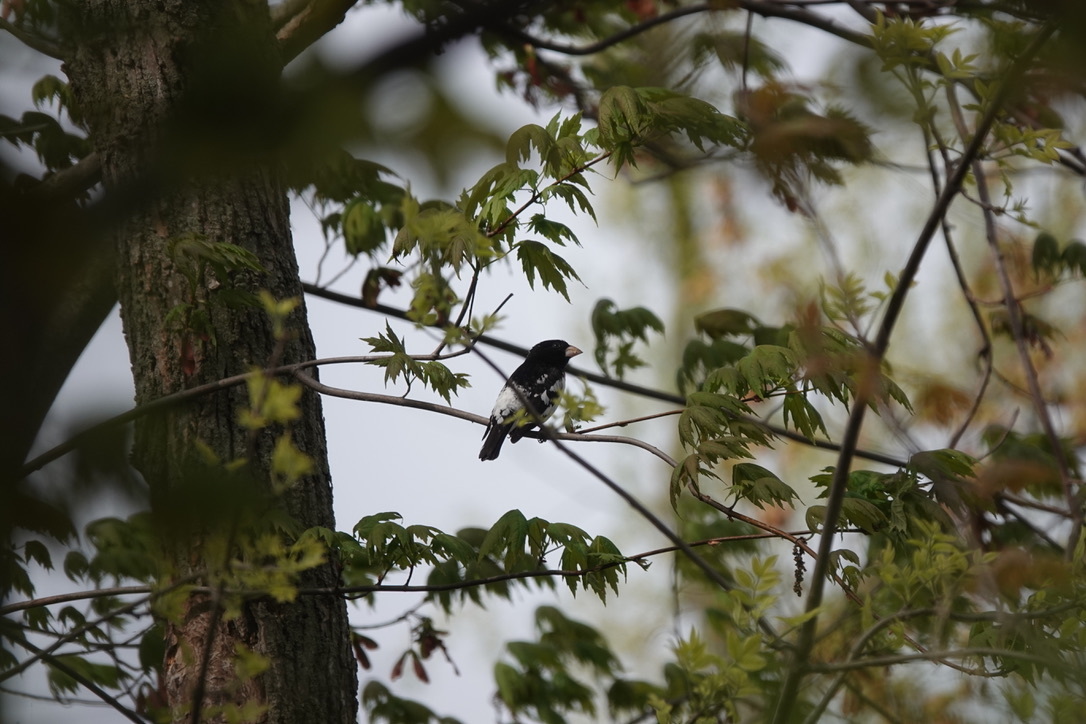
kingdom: Animalia
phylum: Chordata
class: Aves
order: Passeriformes
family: Cardinalidae
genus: Pheucticus
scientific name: Pheucticus ludovicianus
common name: Rose-breasted grosbeak
